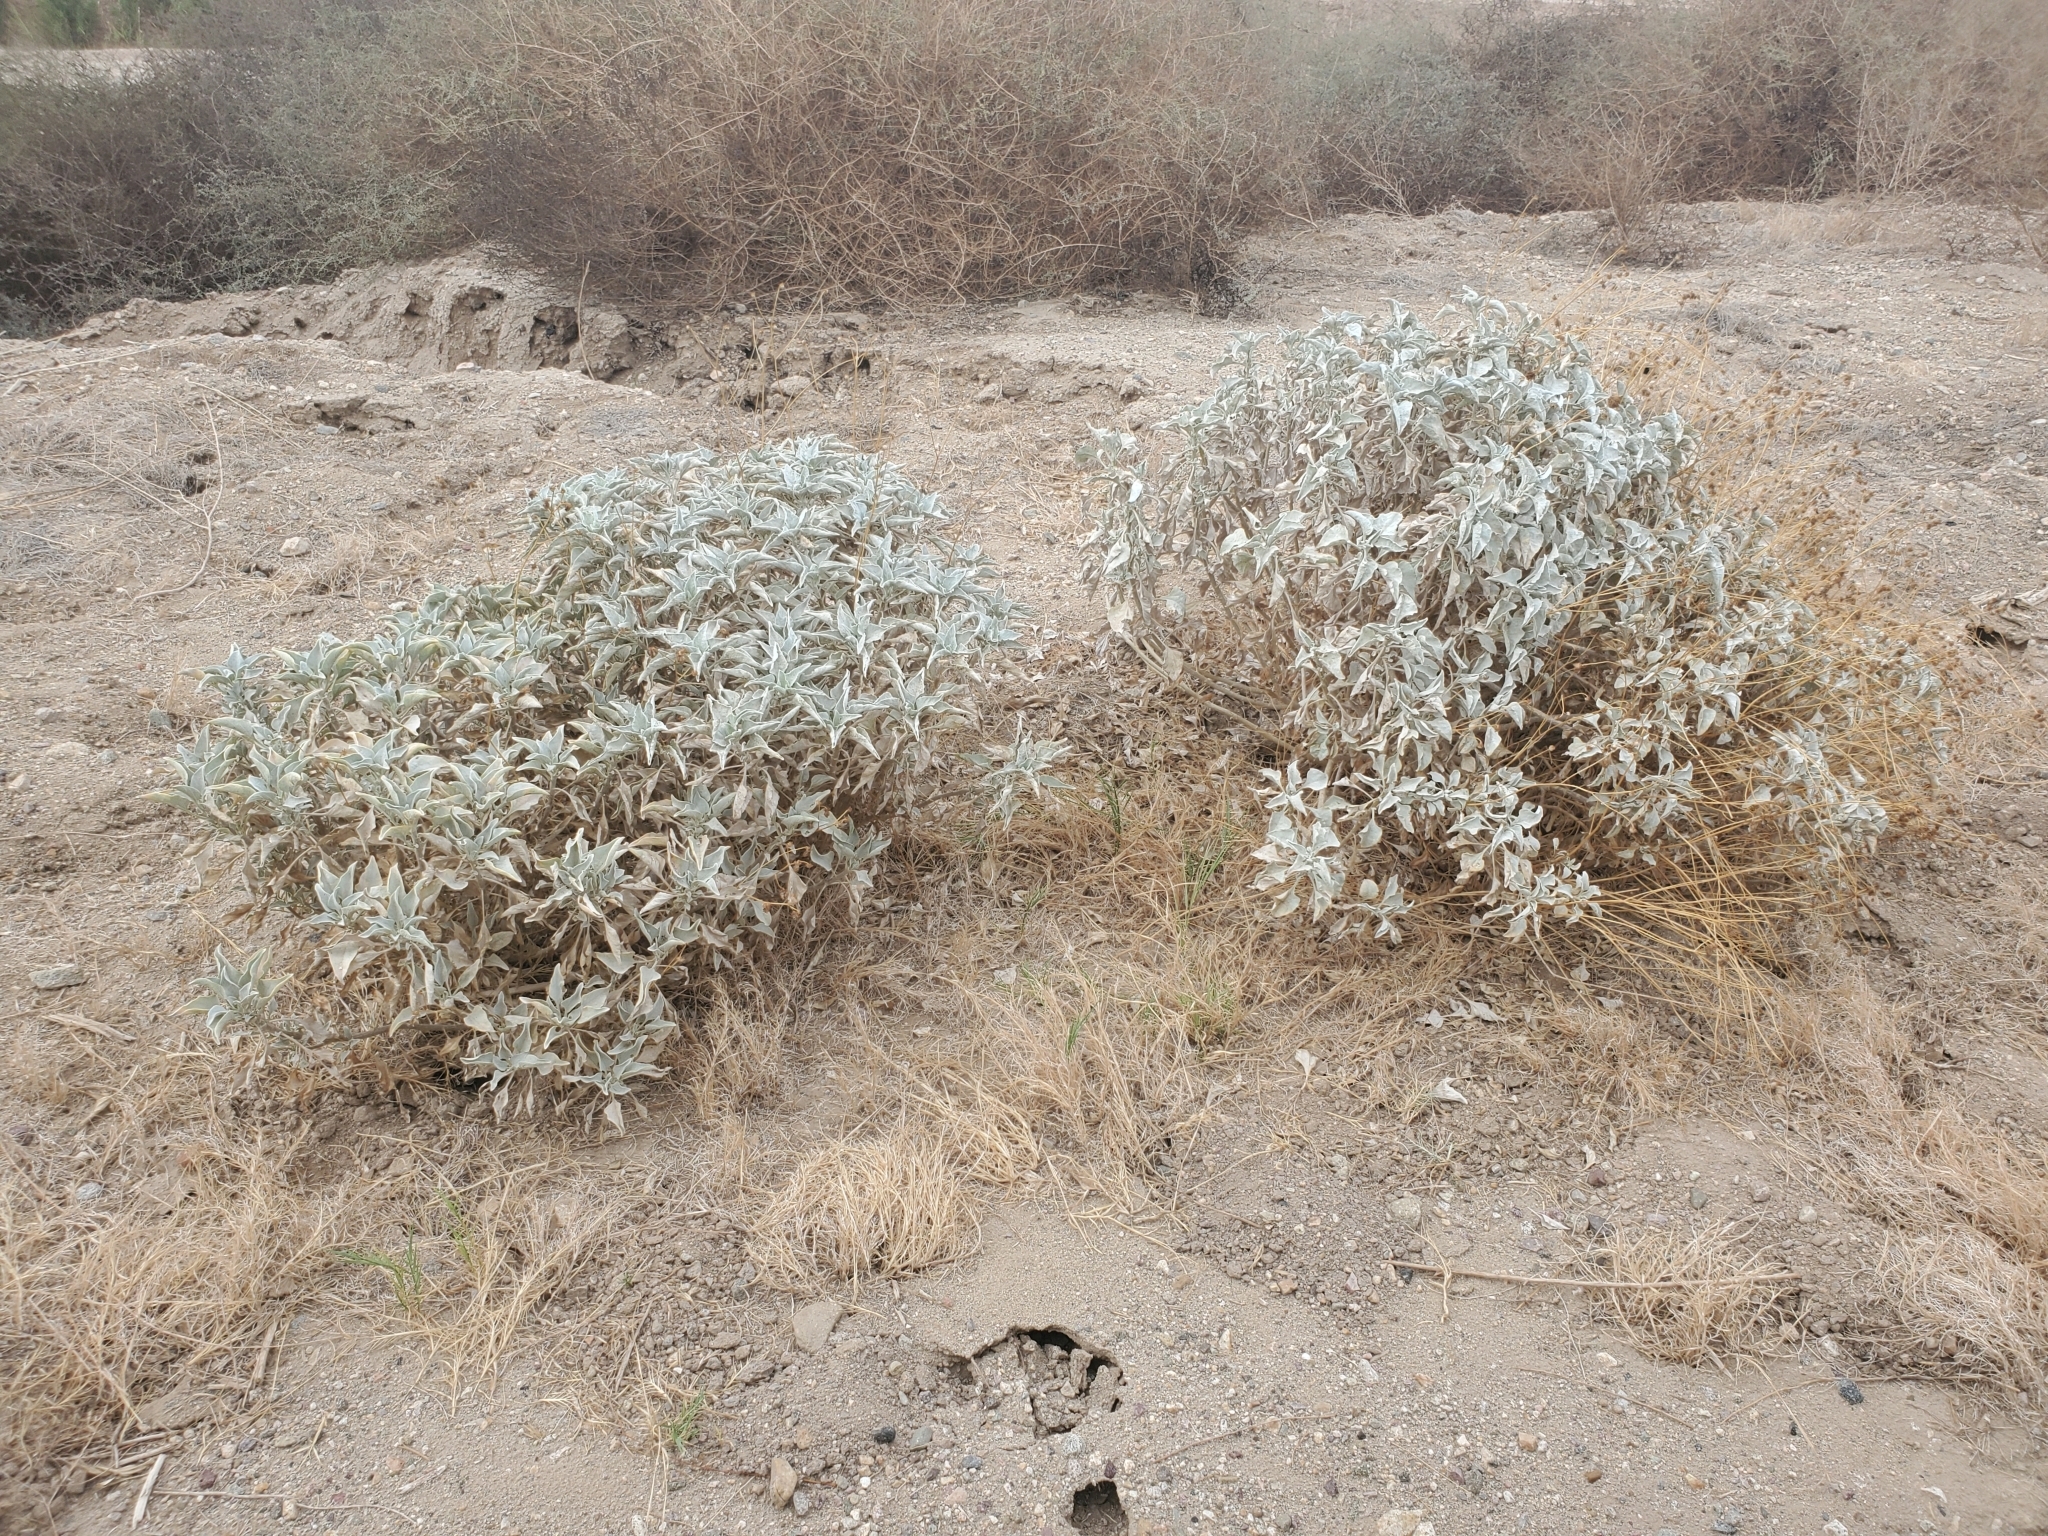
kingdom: Plantae
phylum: Tracheophyta
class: Magnoliopsida
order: Asterales
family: Asteraceae
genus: Encelia
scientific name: Encelia farinosa
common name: Brittlebush
